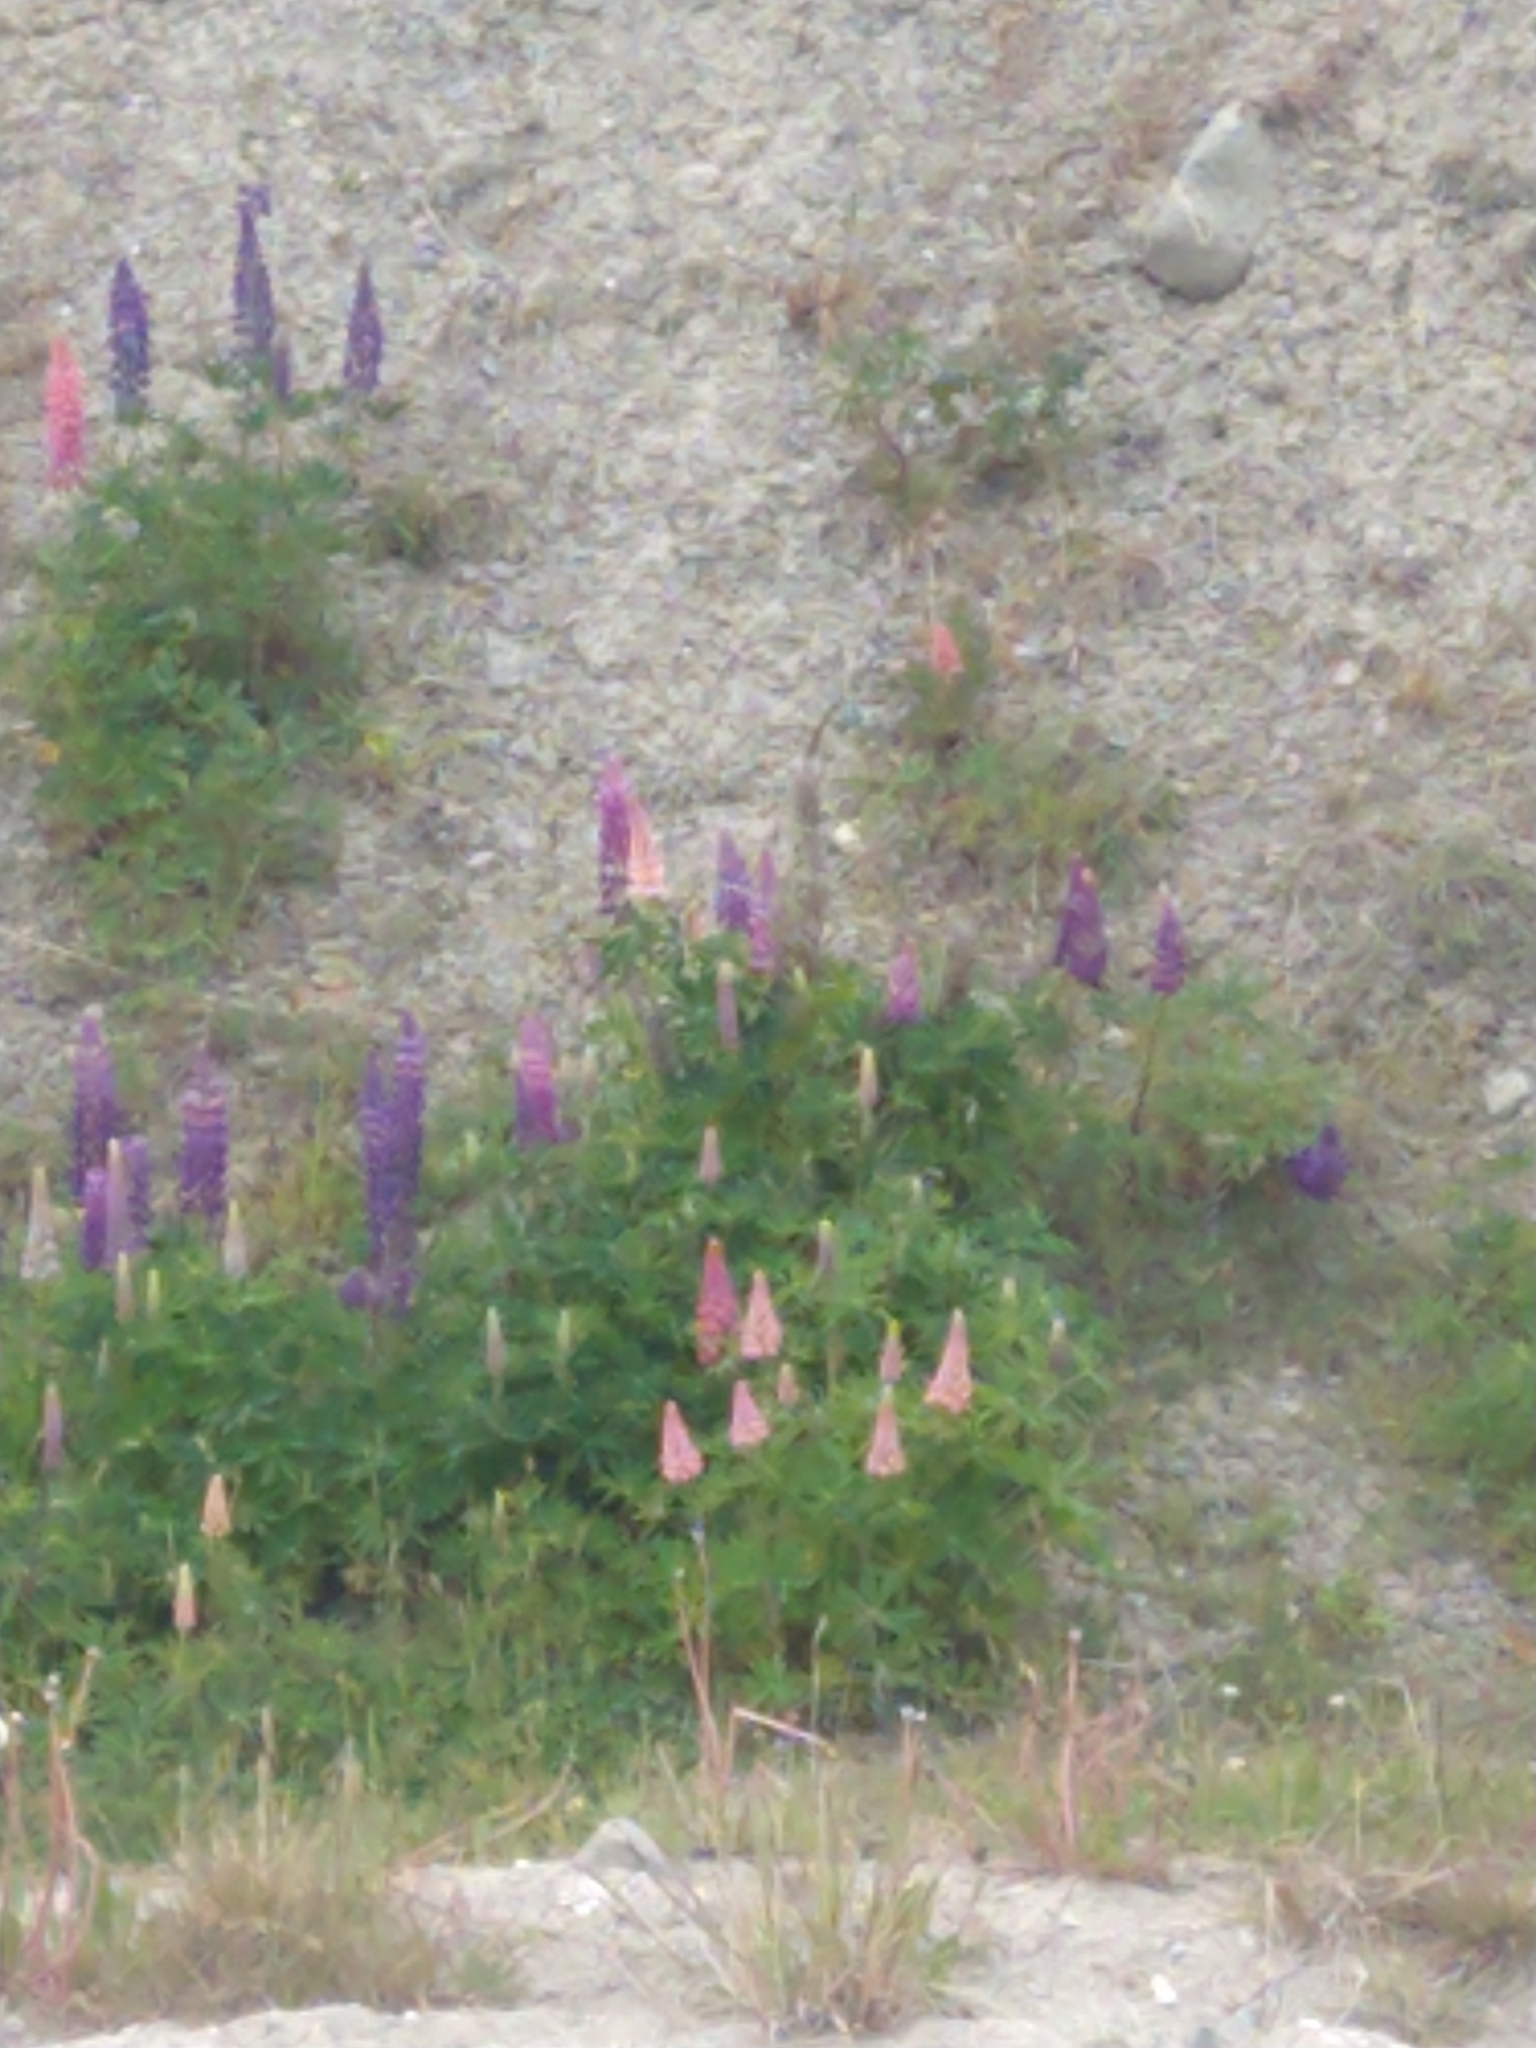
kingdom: Plantae
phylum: Tracheophyta
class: Magnoliopsida
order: Fabales
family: Fabaceae
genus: Lupinus
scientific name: Lupinus polyphyllus
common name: Garden lupin
